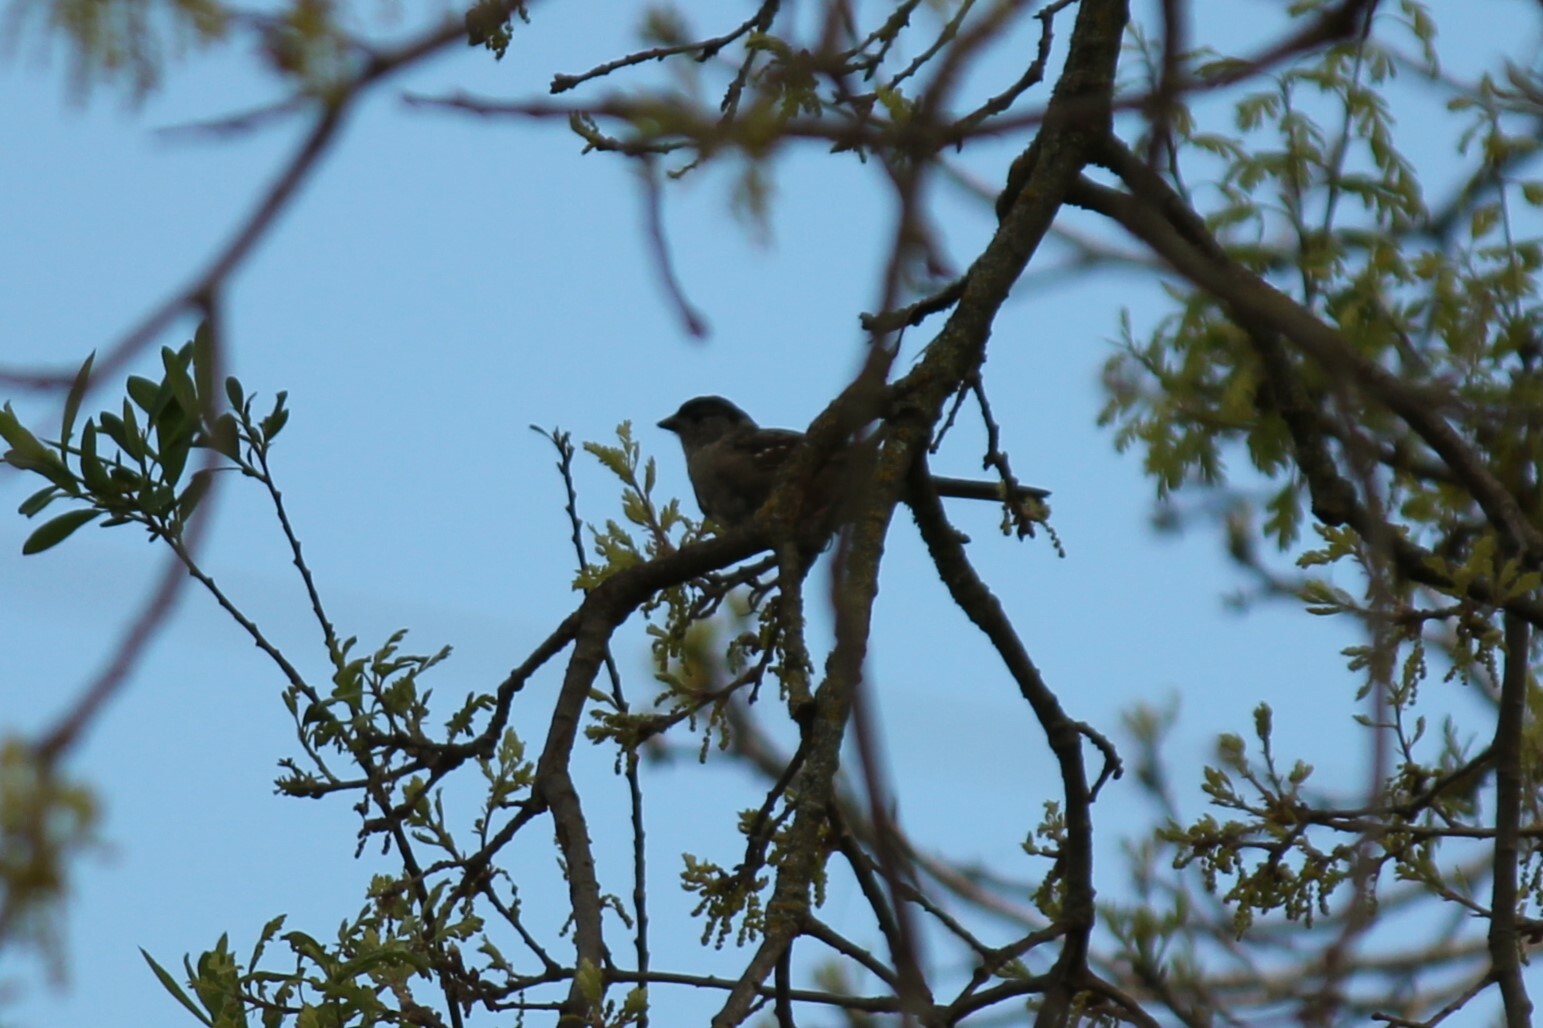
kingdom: Animalia
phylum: Chordata
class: Aves
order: Passeriformes
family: Passerellidae
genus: Zonotrichia
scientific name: Zonotrichia atricapilla
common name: Golden-crowned sparrow
